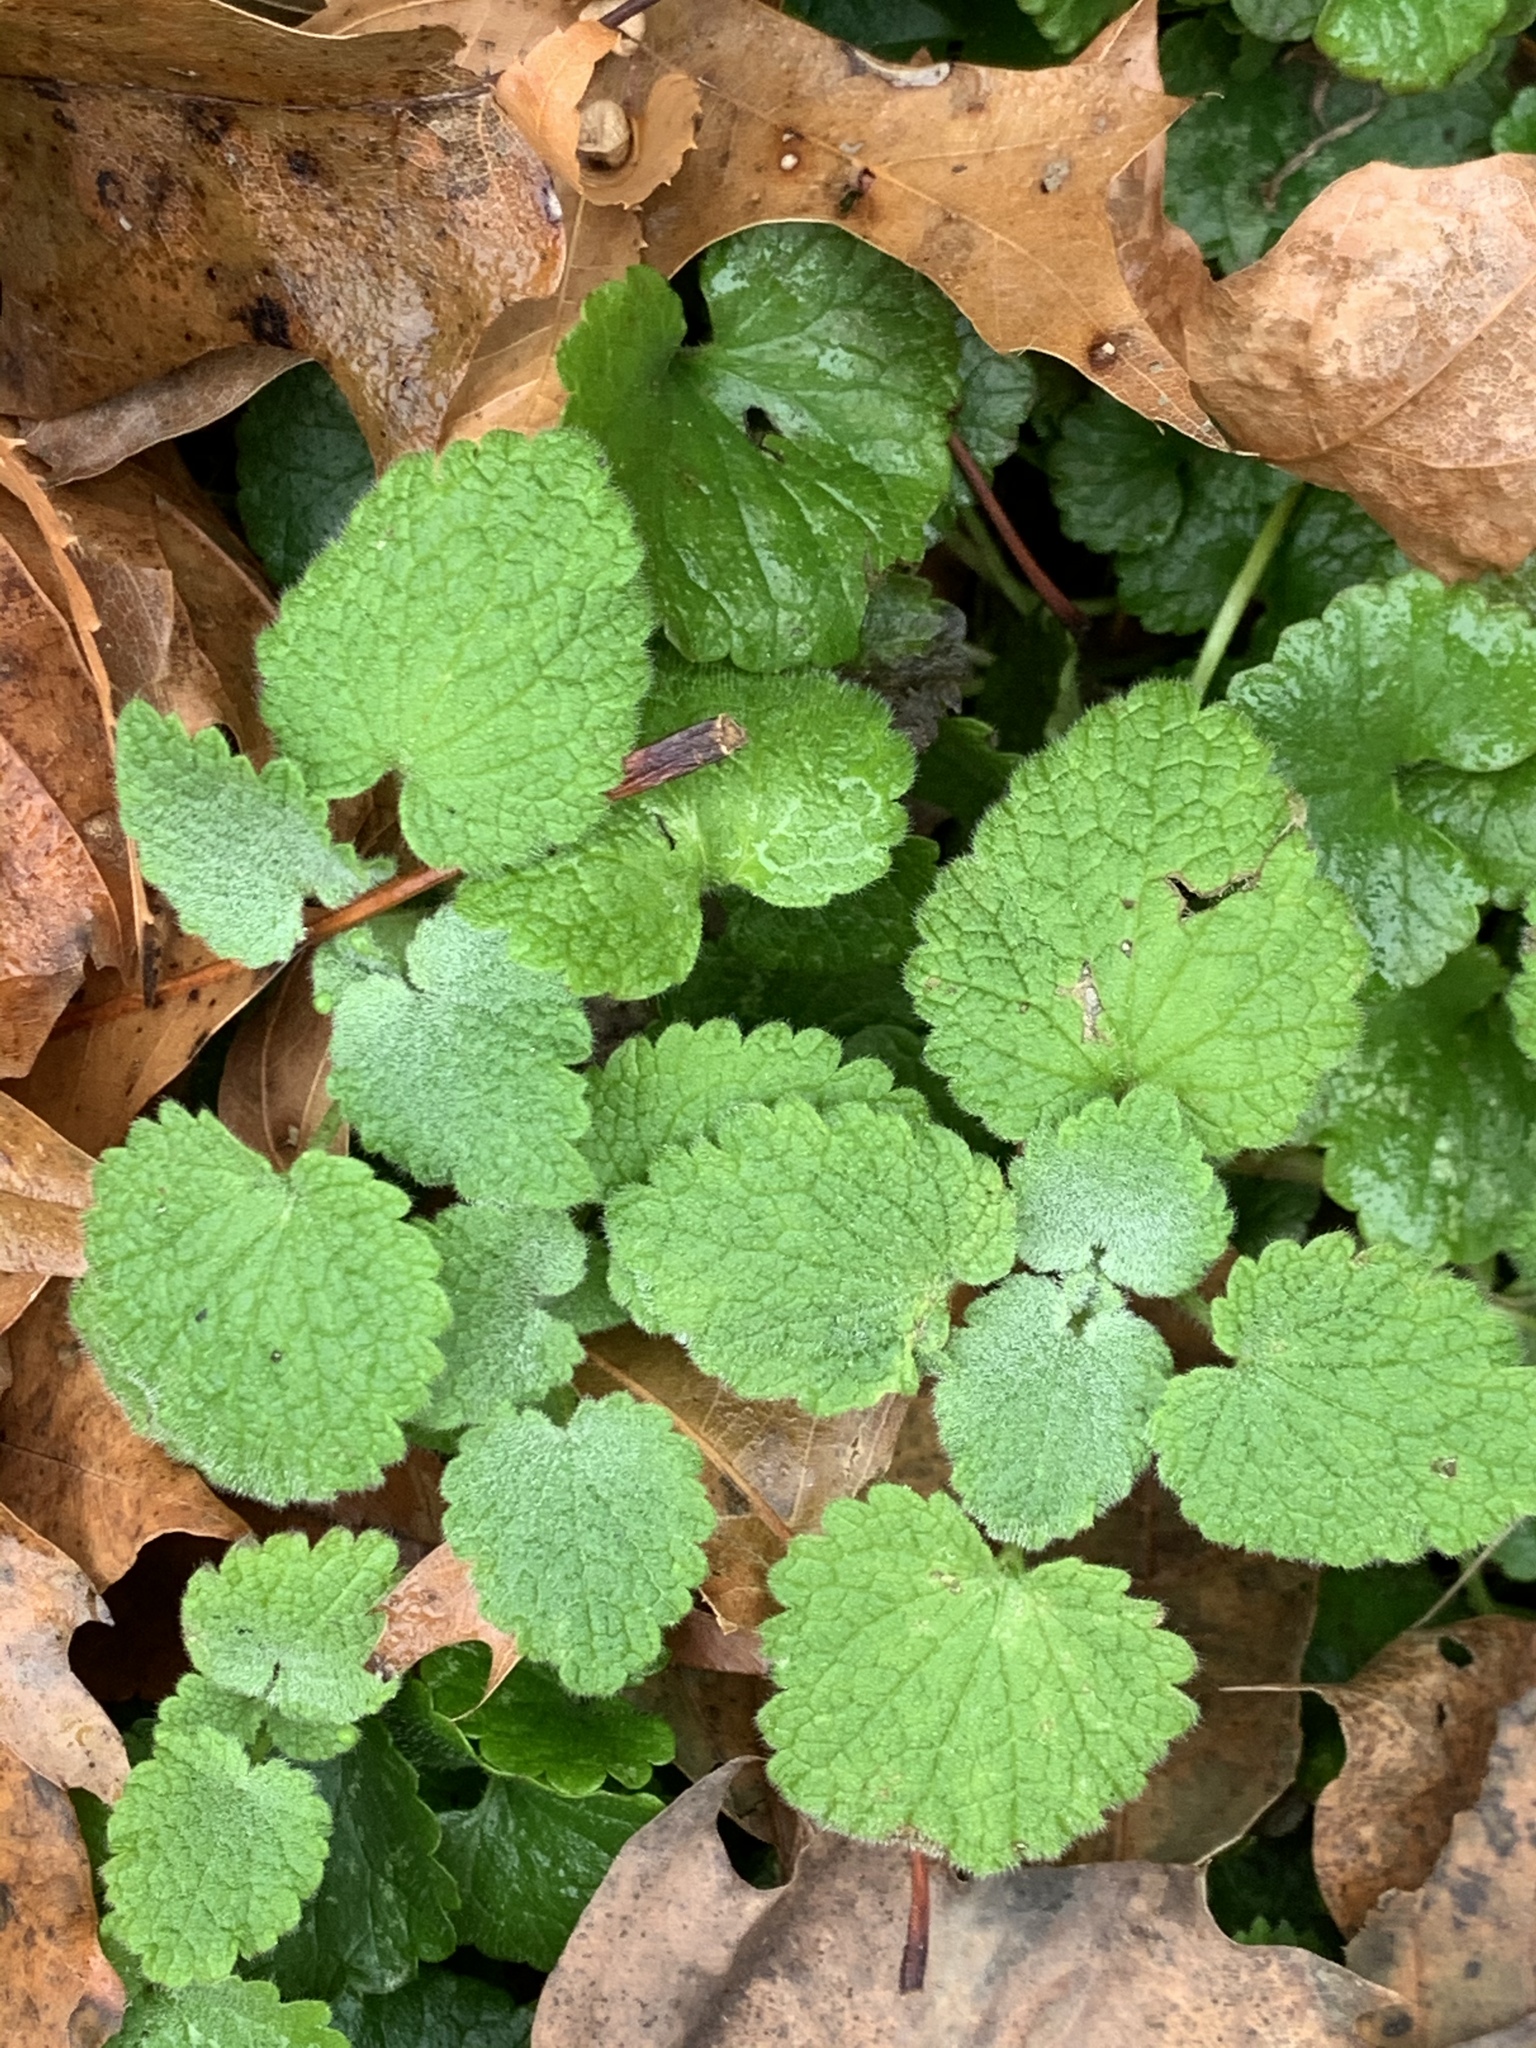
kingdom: Plantae
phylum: Tracheophyta
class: Magnoliopsida
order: Lamiales
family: Lamiaceae
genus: Lamium
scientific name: Lamium purpureum
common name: Red dead-nettle
